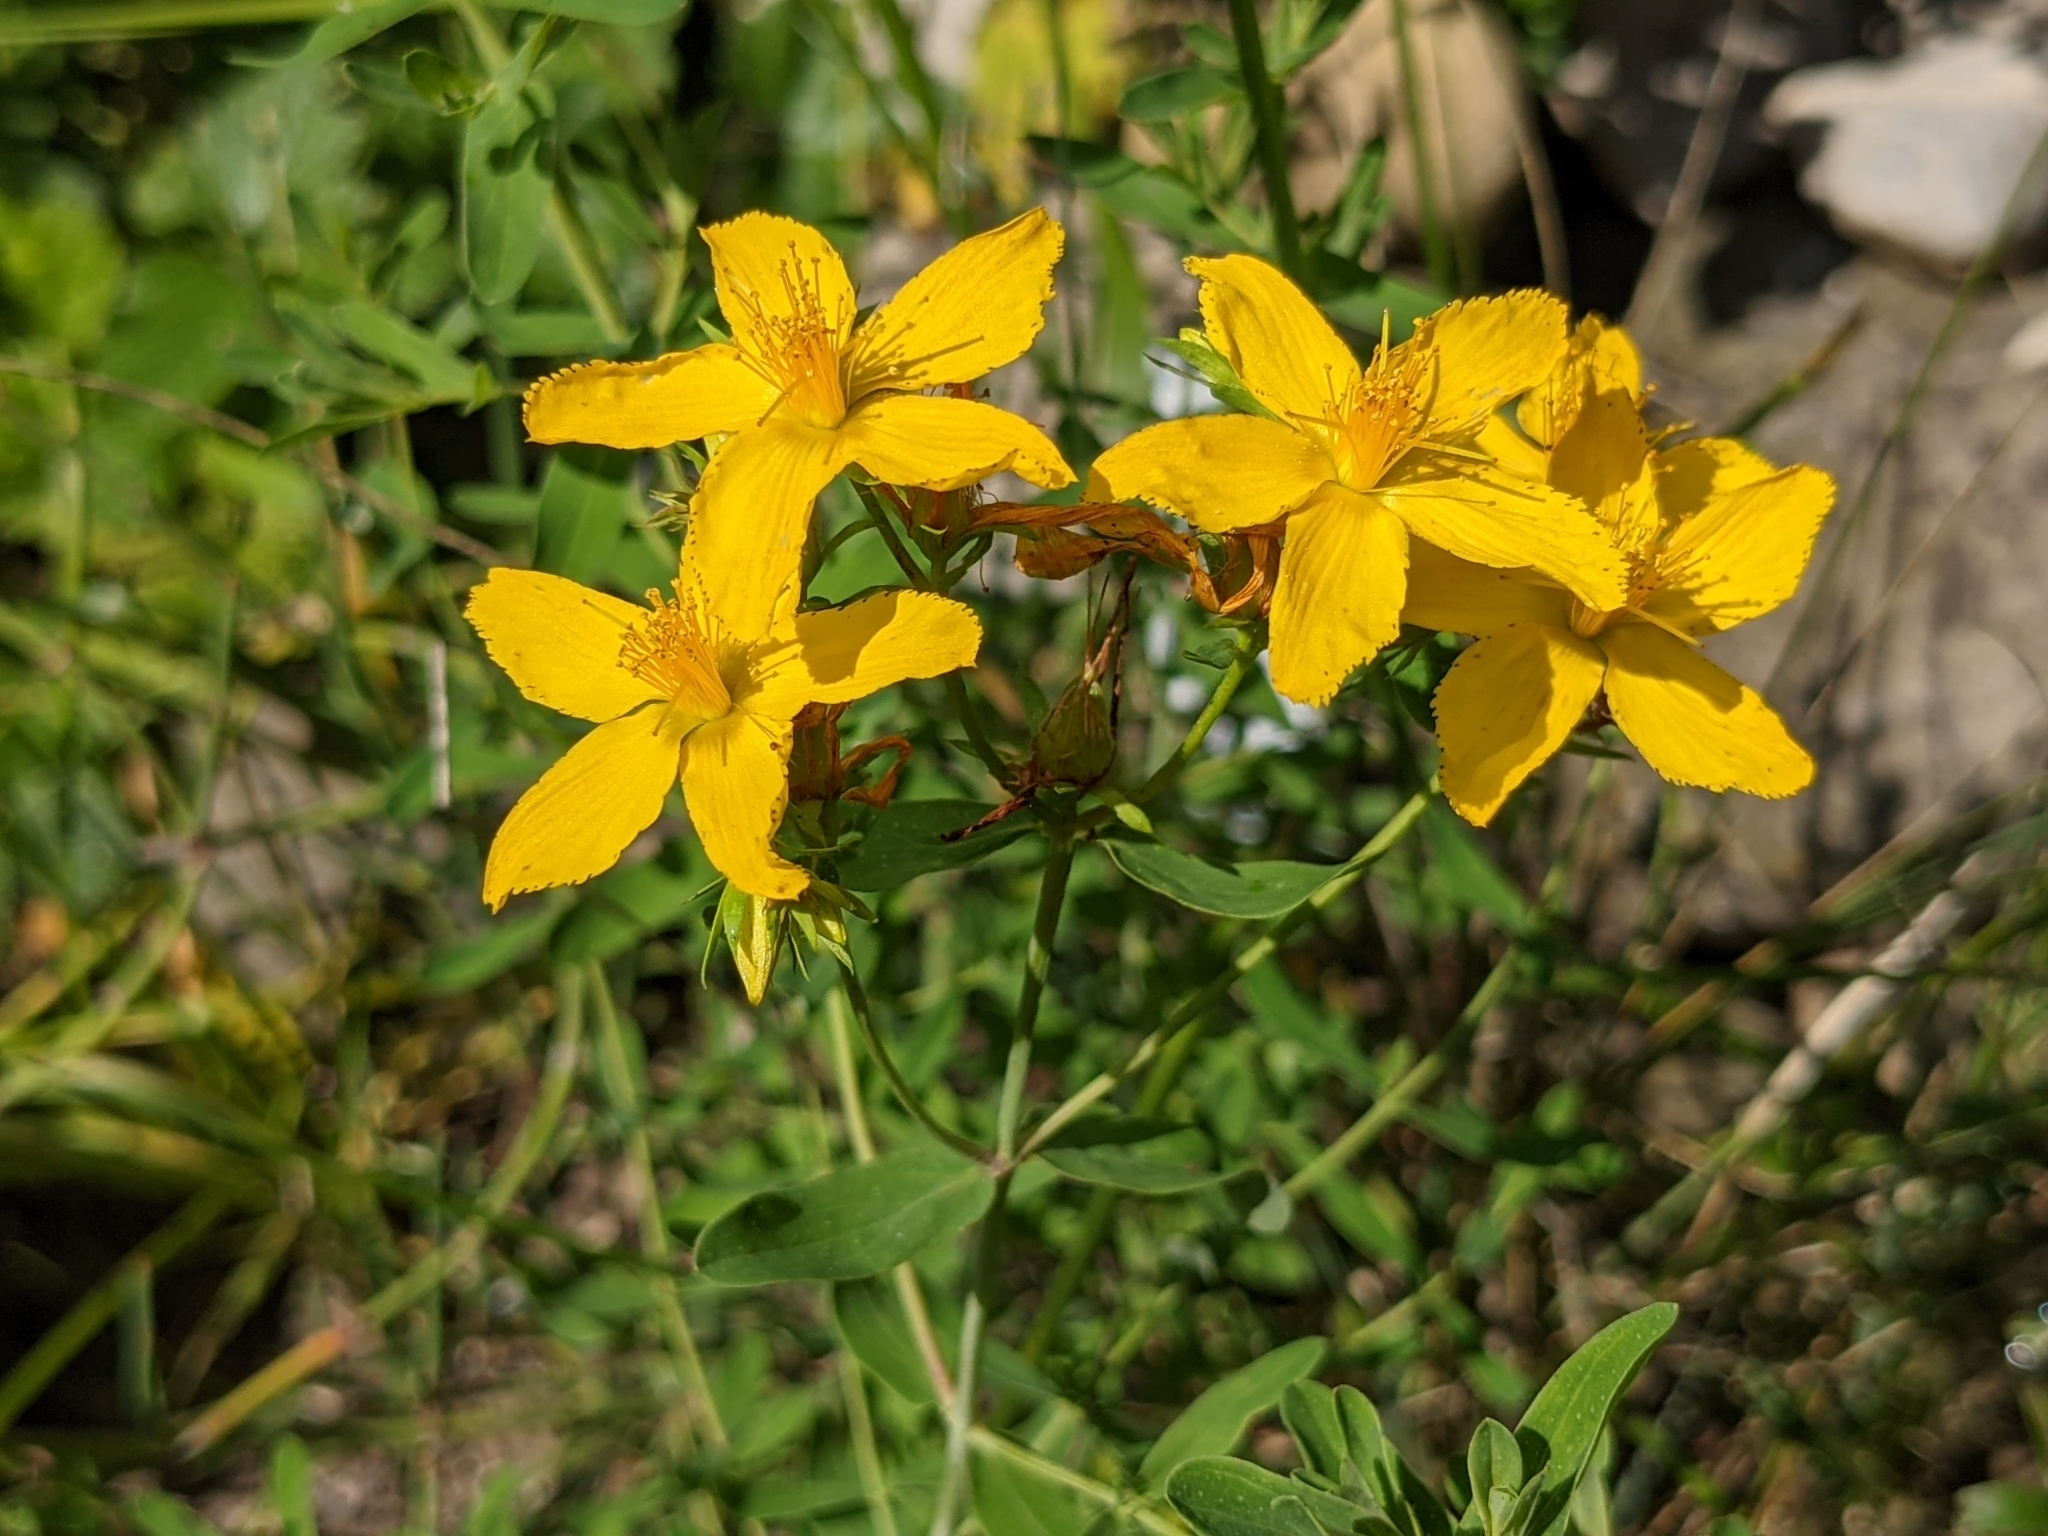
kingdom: Plantae
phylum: Tracheophyta
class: Magnoliopsida
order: Malpighiales
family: Hypericaceae
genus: Hypericum
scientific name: Hypericum perforatum
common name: Common st. johnswort
